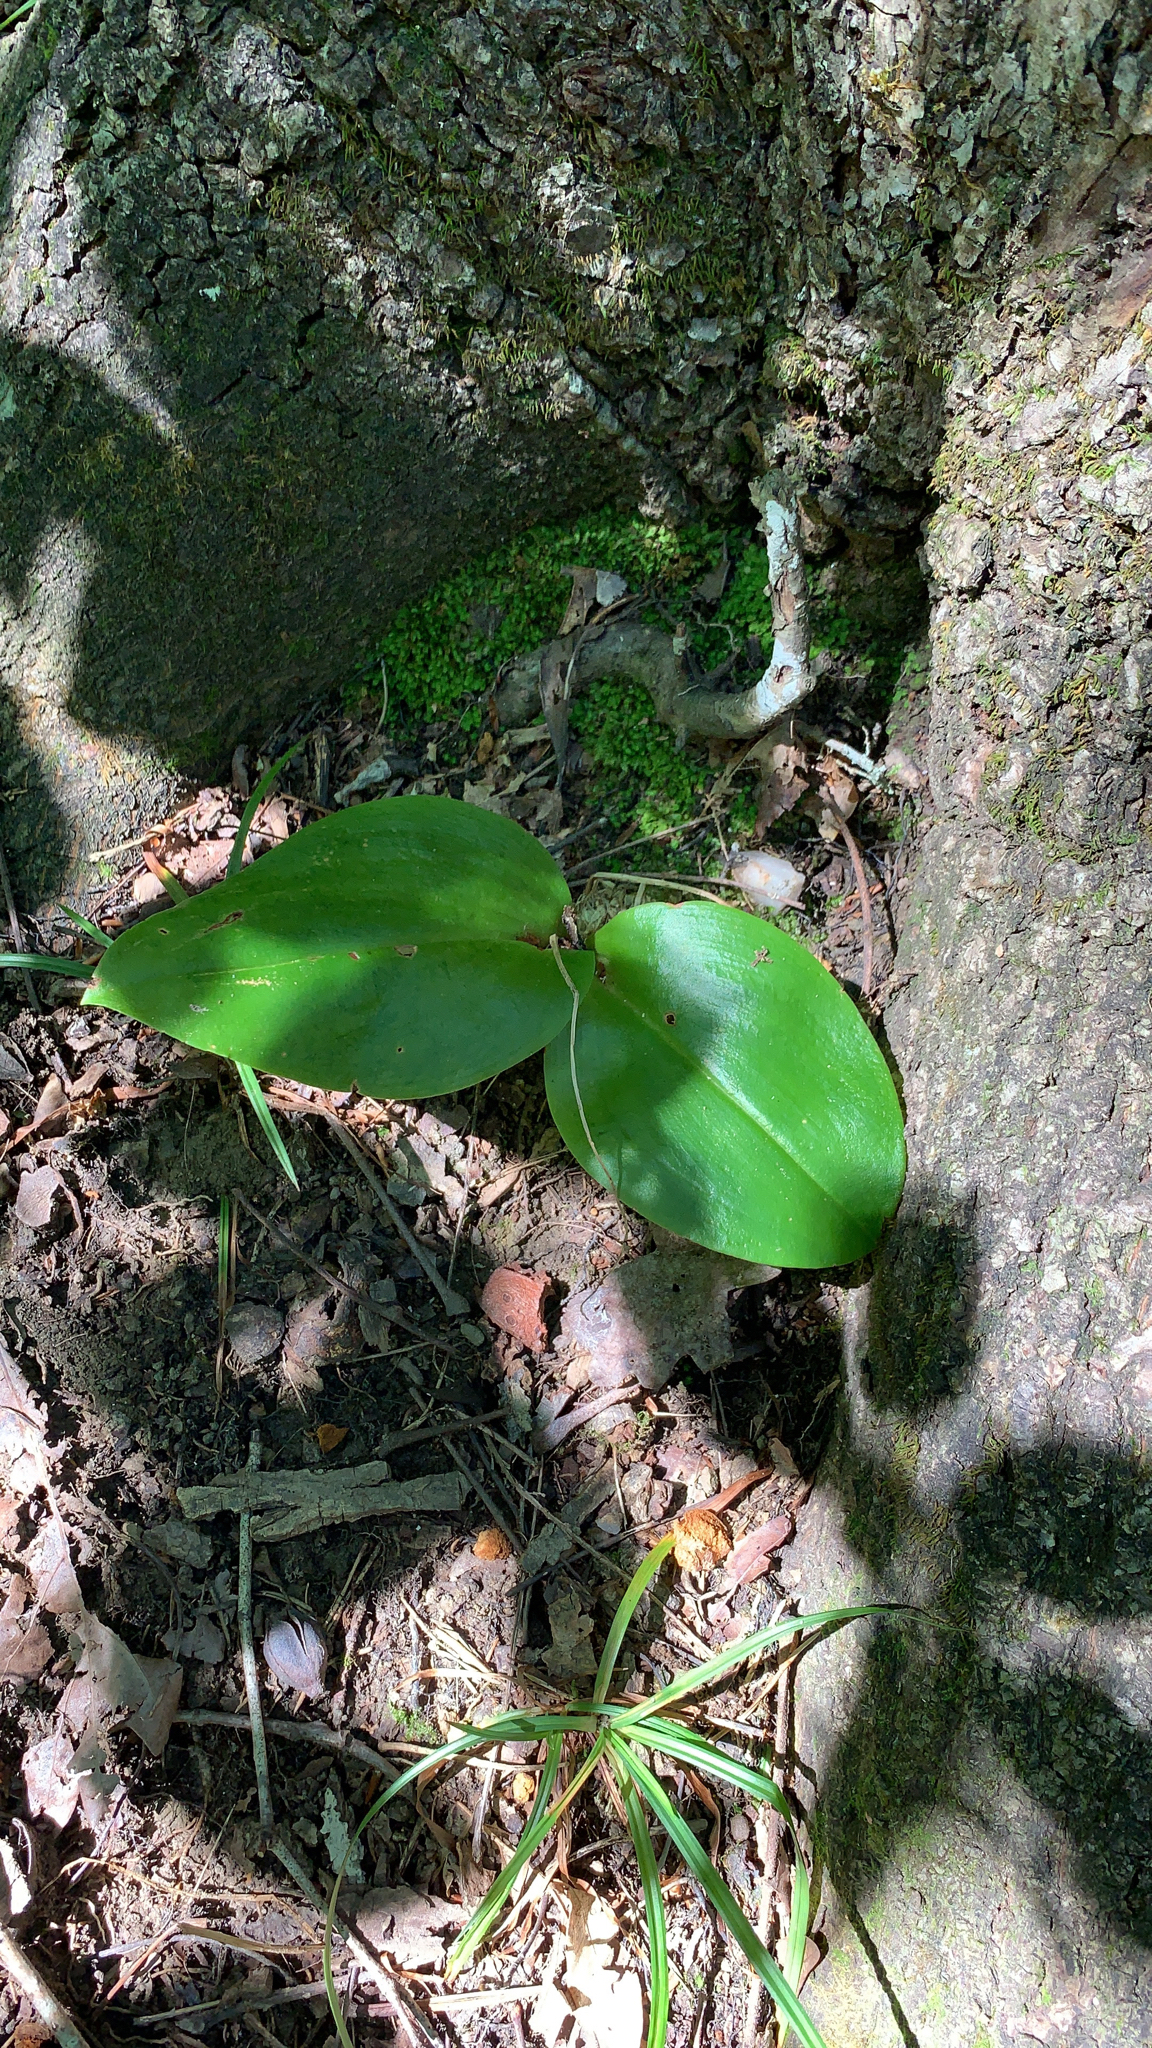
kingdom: Plantae
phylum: Tracheophyta
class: Liliopsida
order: Asparagales
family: Orchidaceae
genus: Liparis
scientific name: Liparis liliifolia
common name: Brown wide-lip orchid
